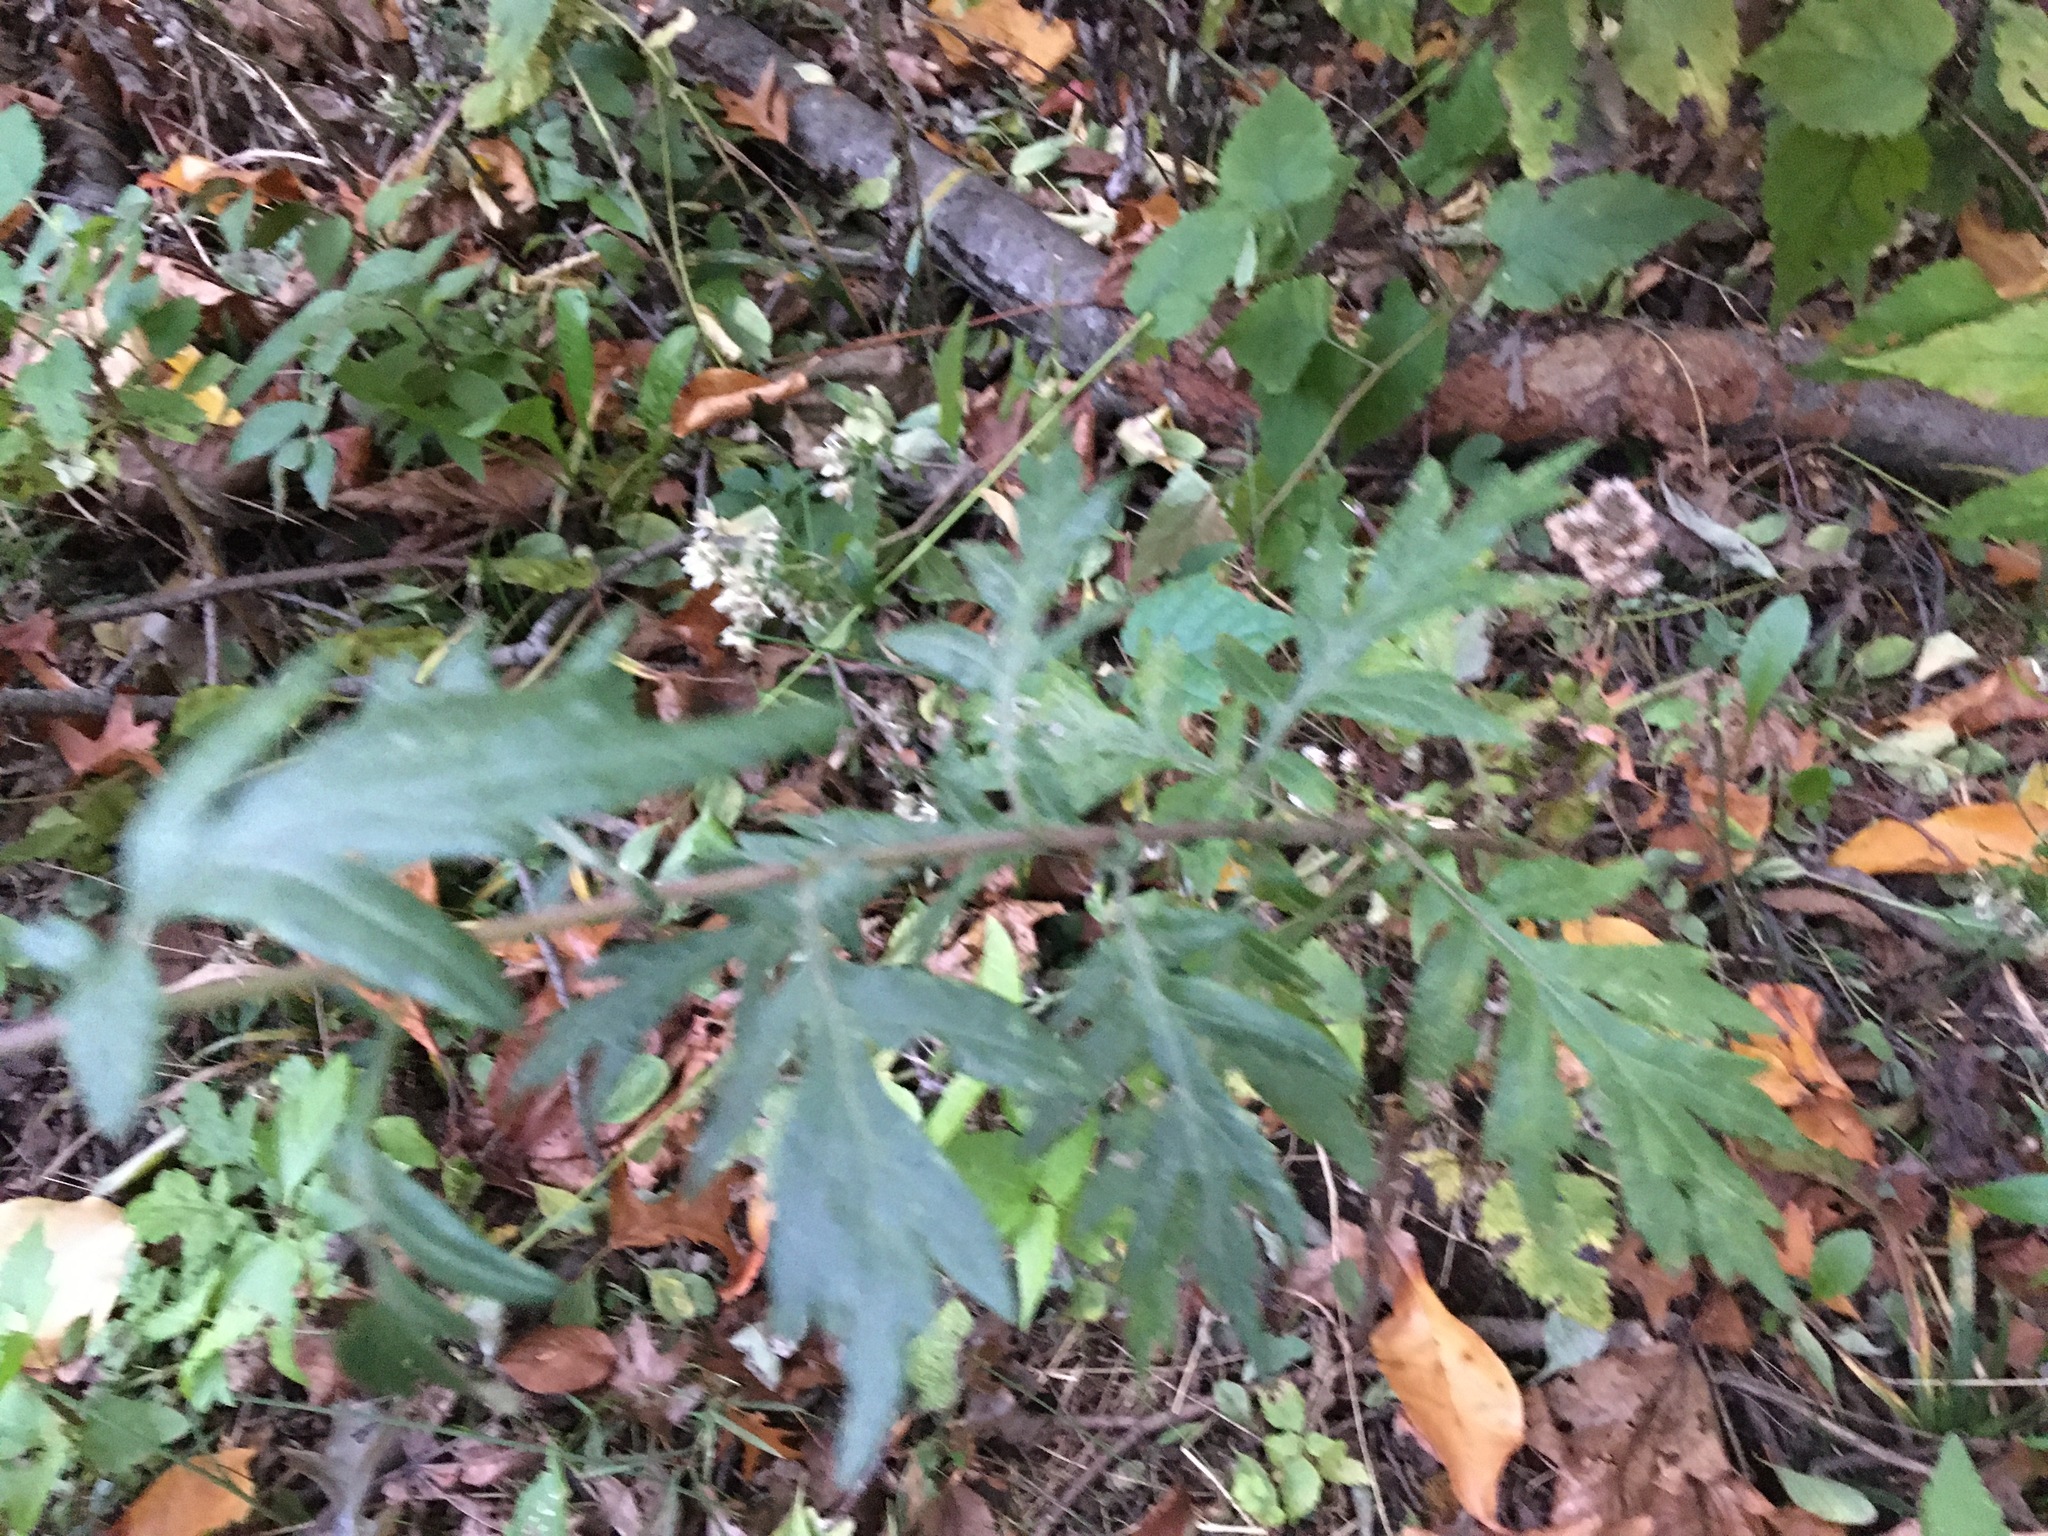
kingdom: Plantae
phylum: Tracheophyta
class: Magnoliopsida
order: Asterales
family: Asteraceae
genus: Artemisia
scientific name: Artemisia vulgaris
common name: Mugwort
